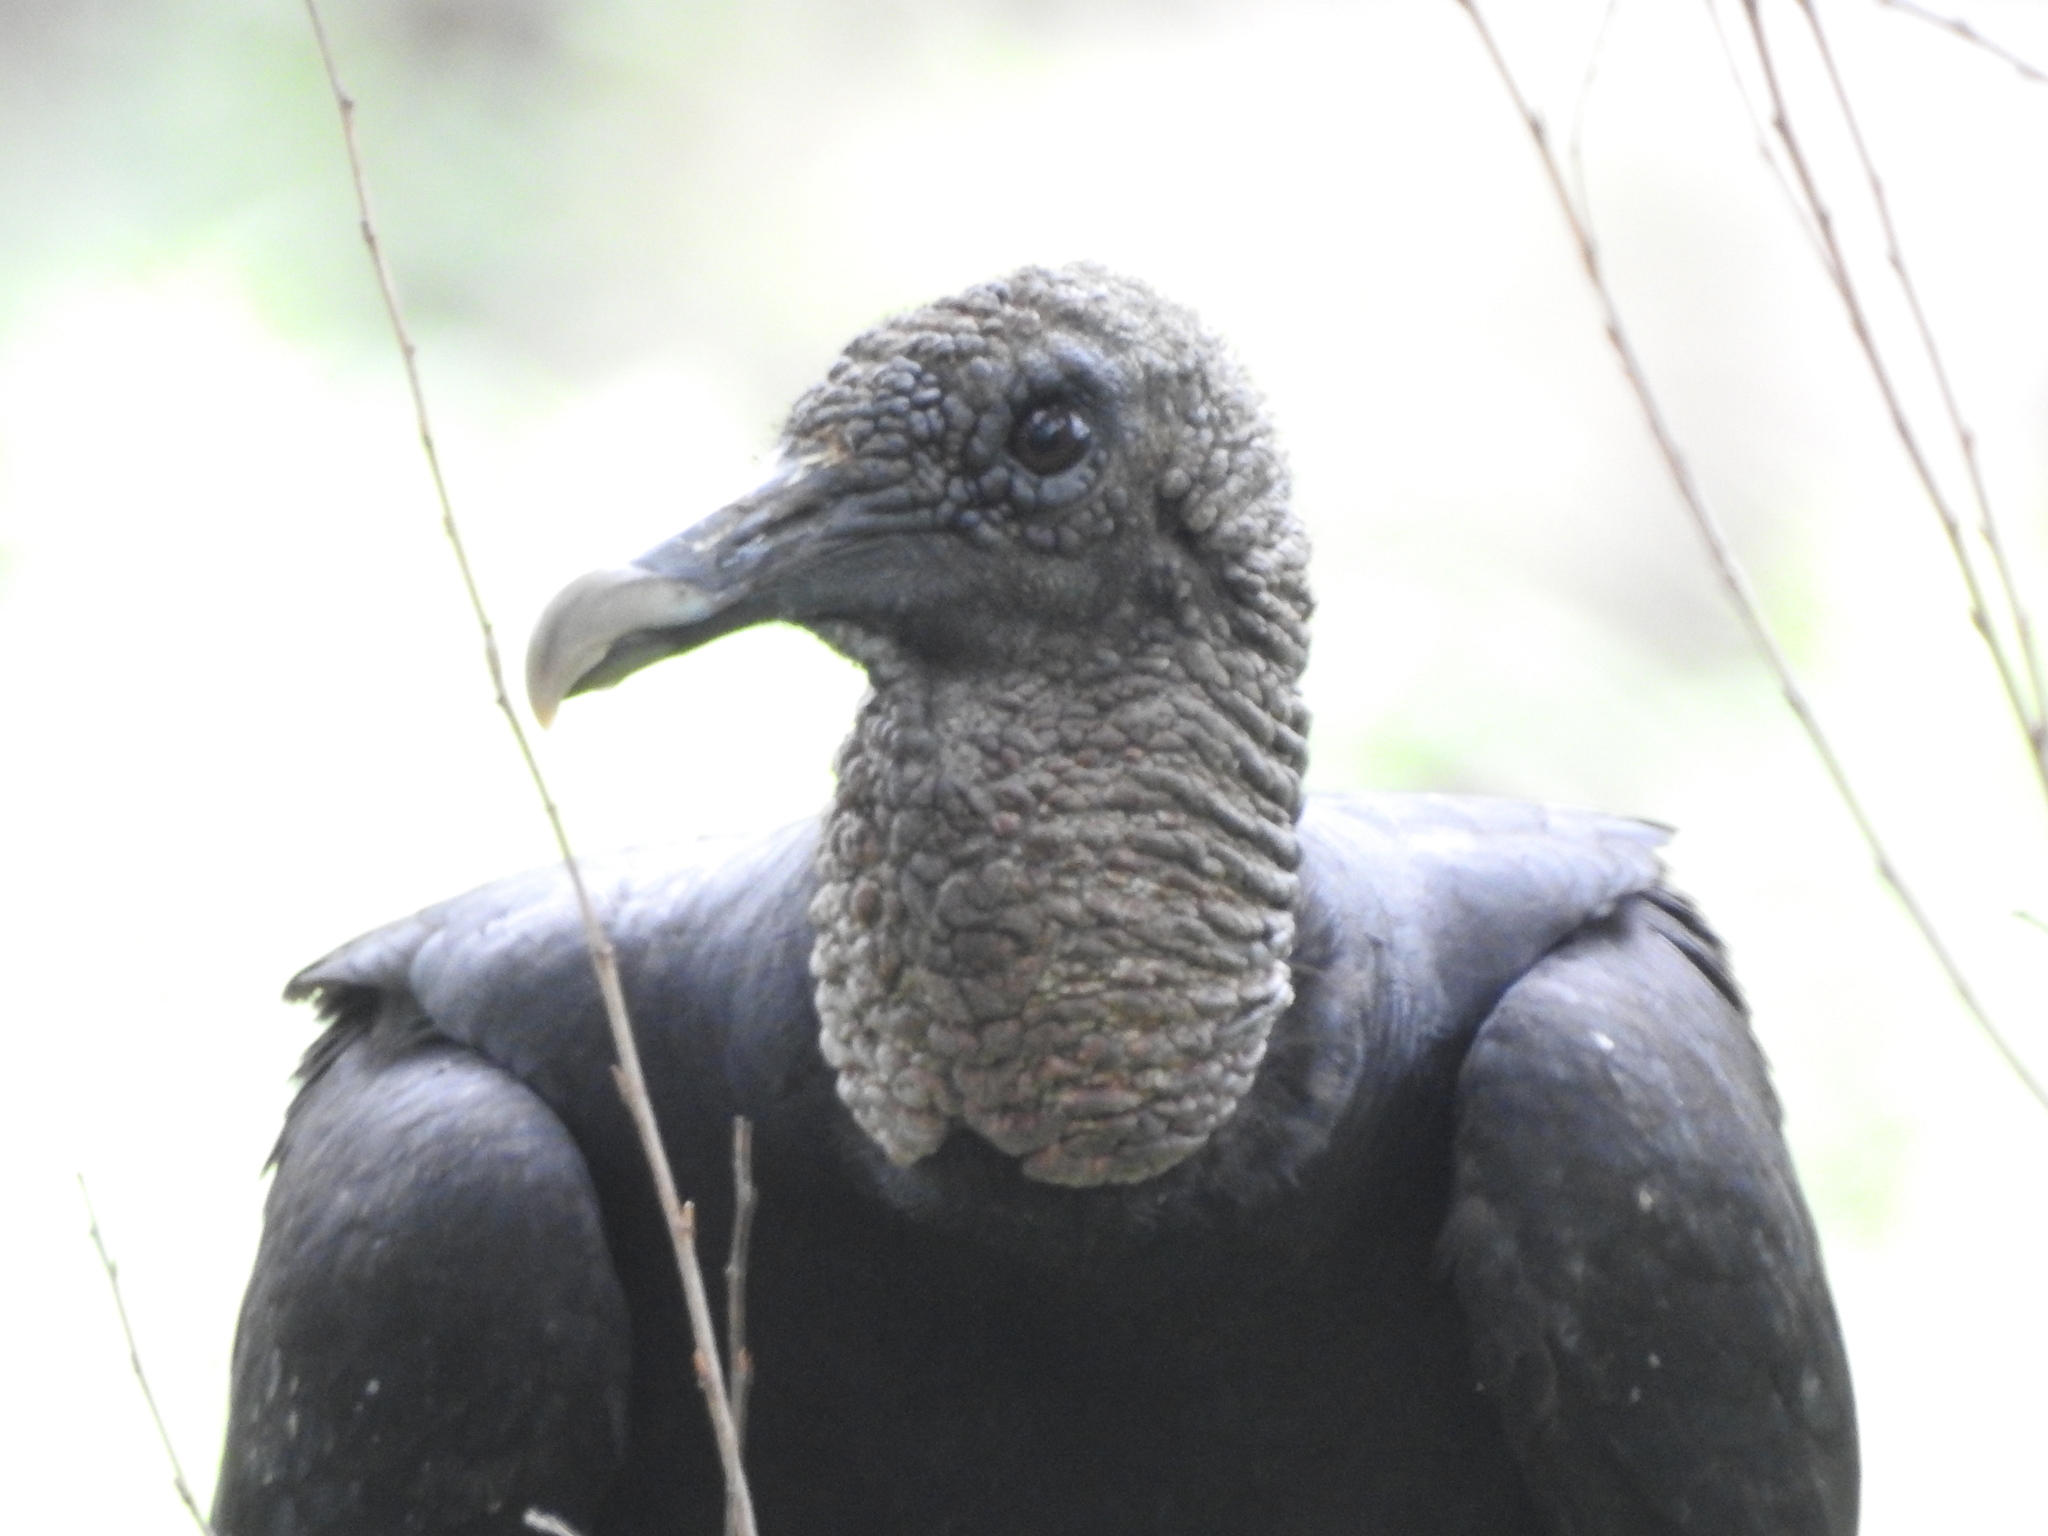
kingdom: Animalia
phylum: Chordata
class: Aves
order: Accipitriformes
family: Cathartidae
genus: Coragyps
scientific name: Coragyps atratus
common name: Black vulture
